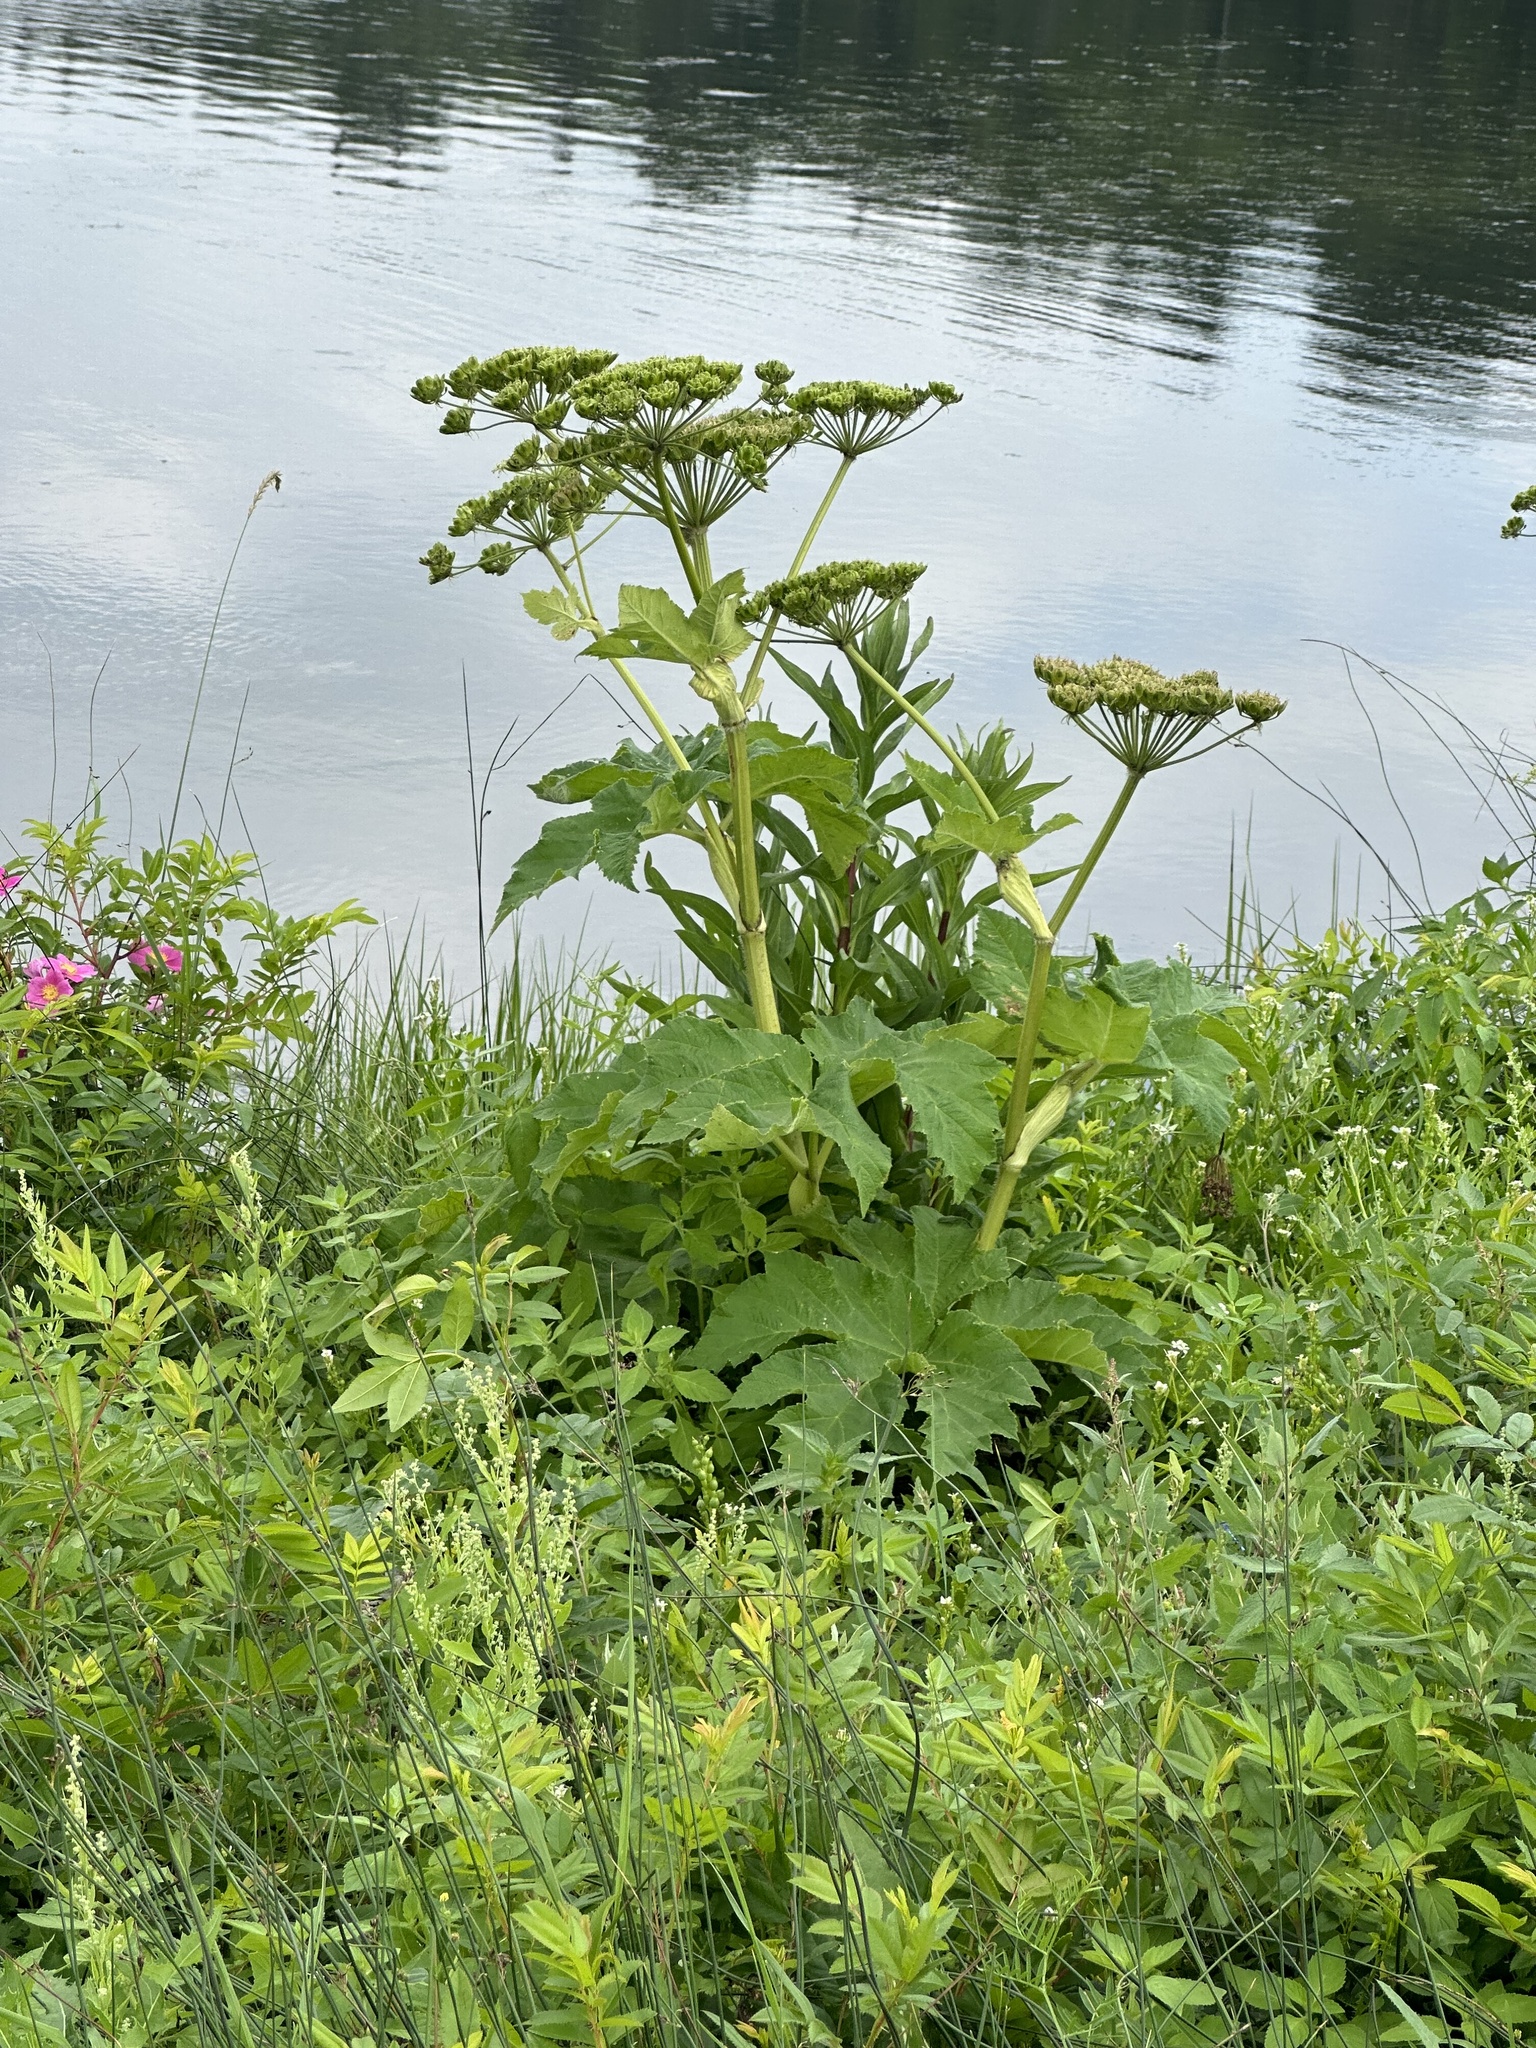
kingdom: Plantae
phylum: Tracheophyta
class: Magnoliopsida
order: Apiales
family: Apiaceae
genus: Heracleum
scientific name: Heracleum maximum
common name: American cow parsnip
